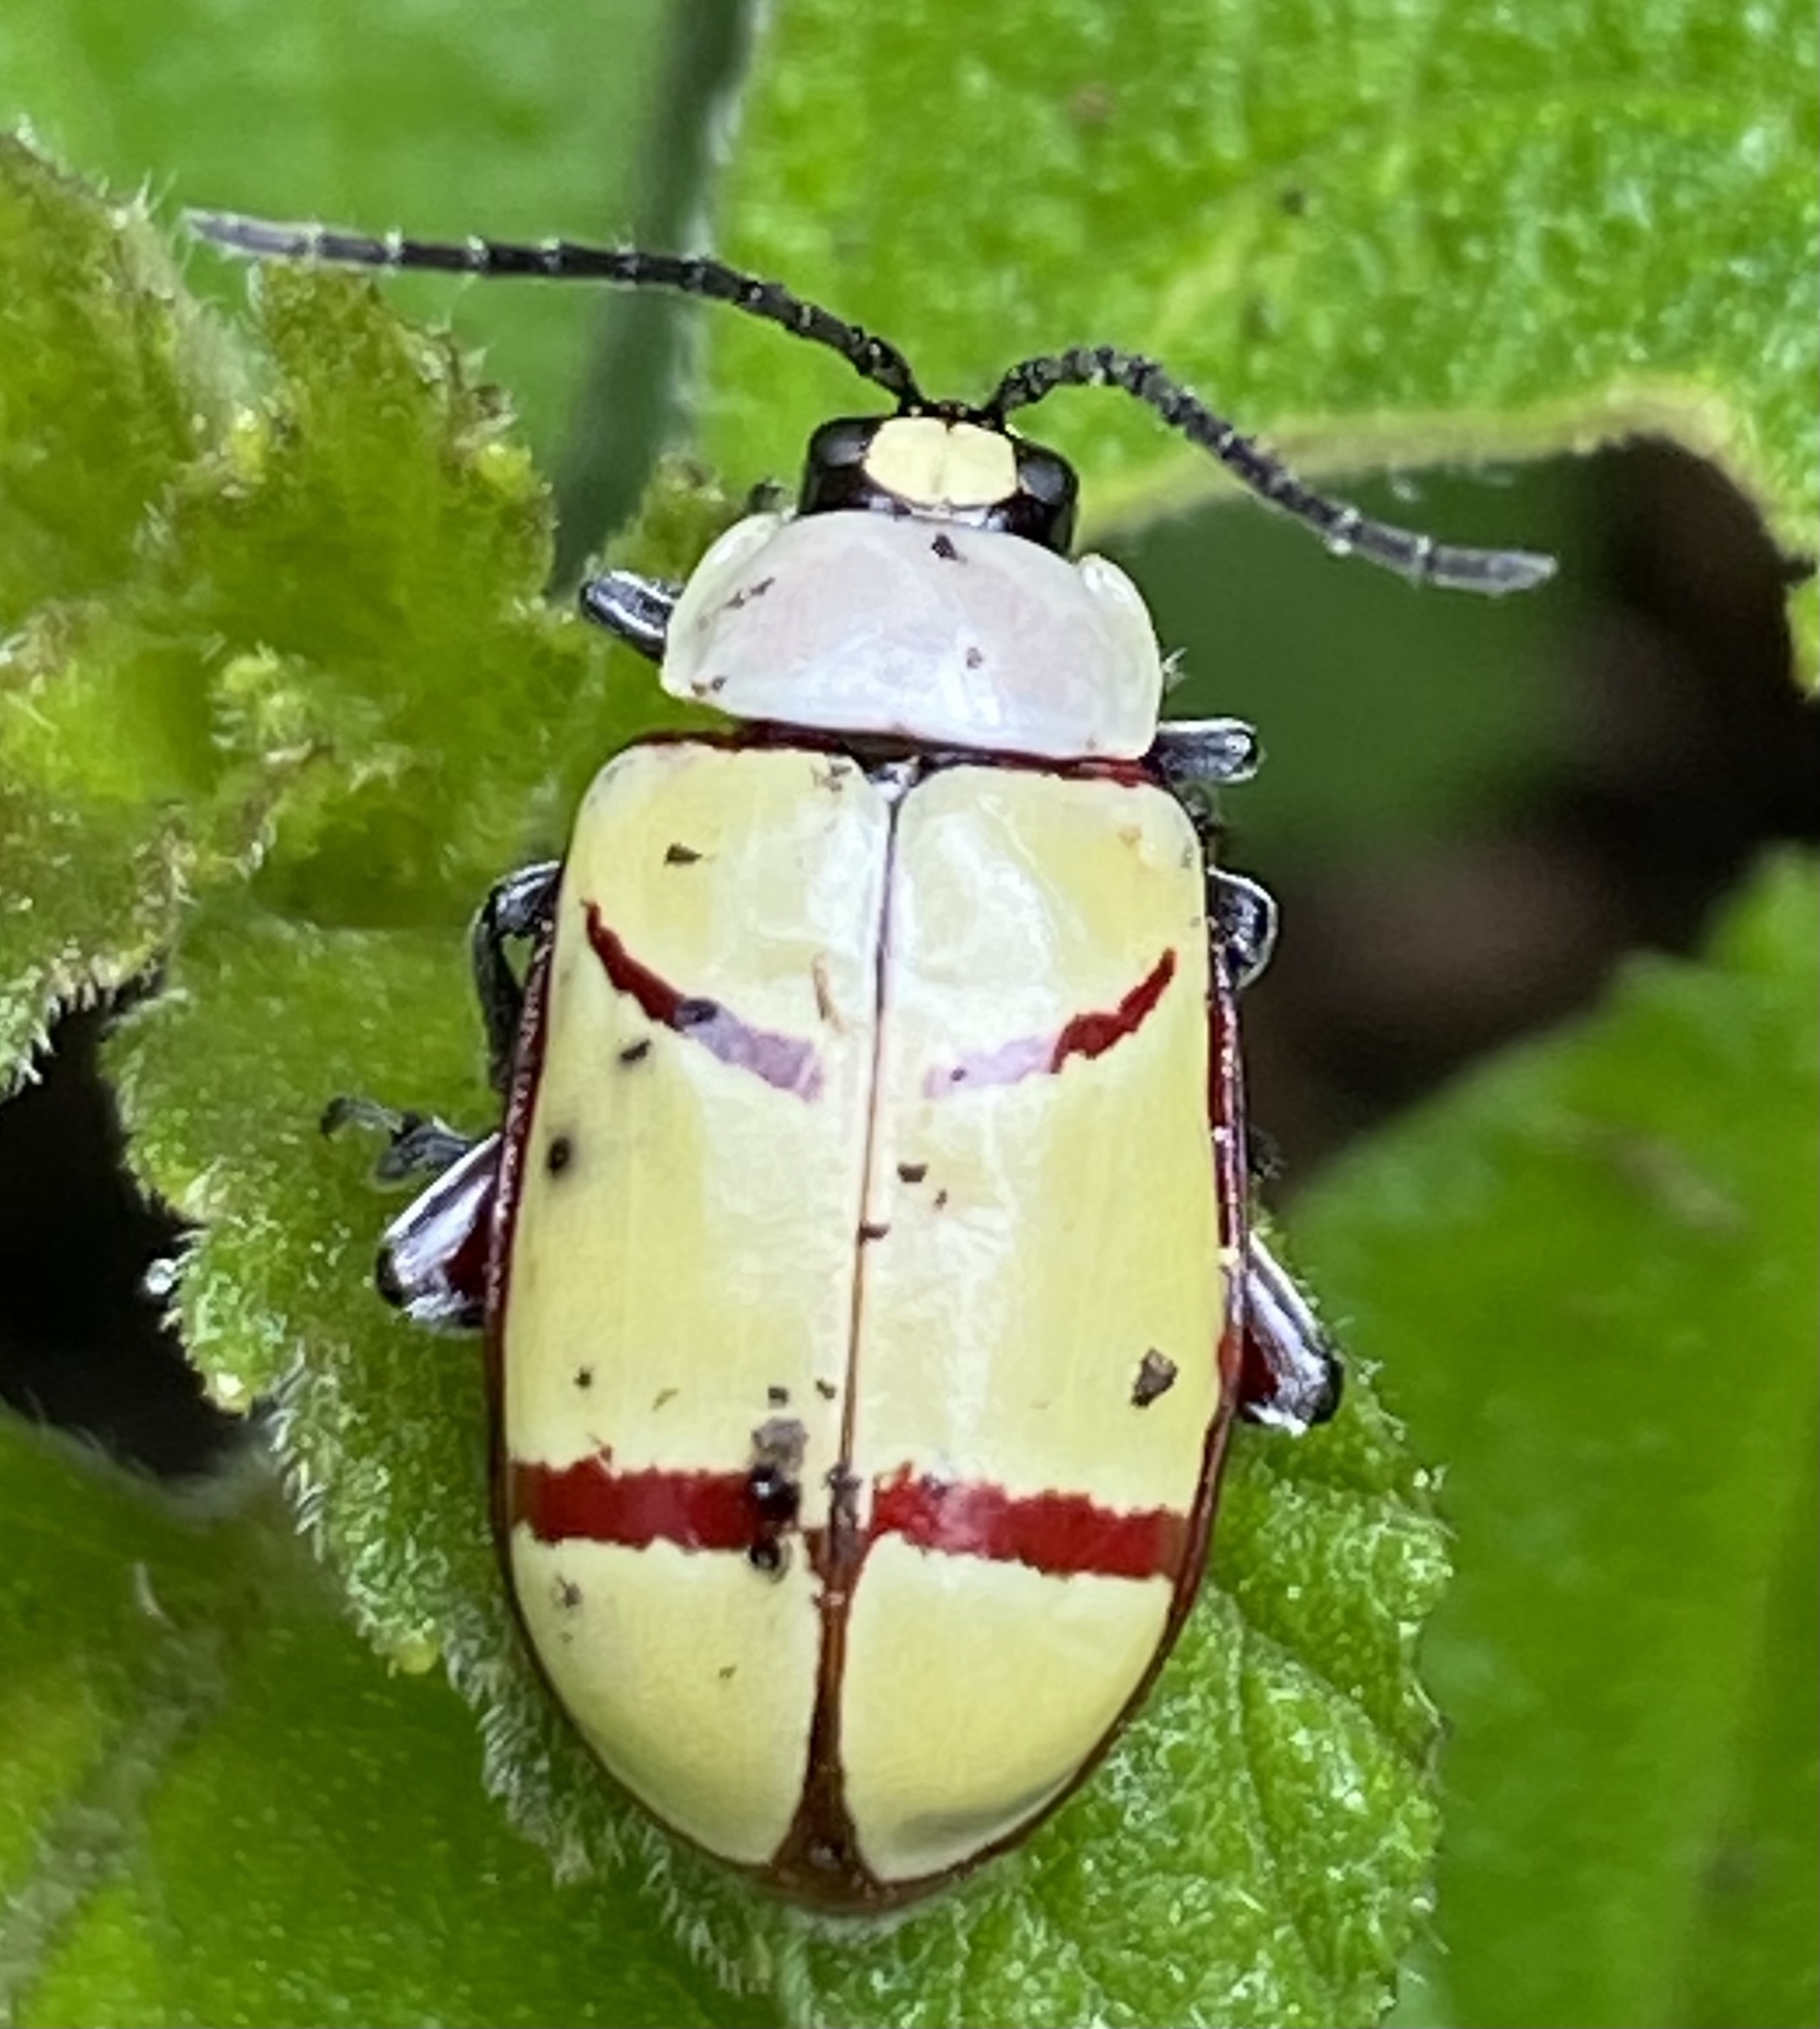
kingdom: Animalia
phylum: Arthropoda
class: Insecta
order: Coleoptera
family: Chrysomelidae
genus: Omophoita
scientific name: Omophoita
